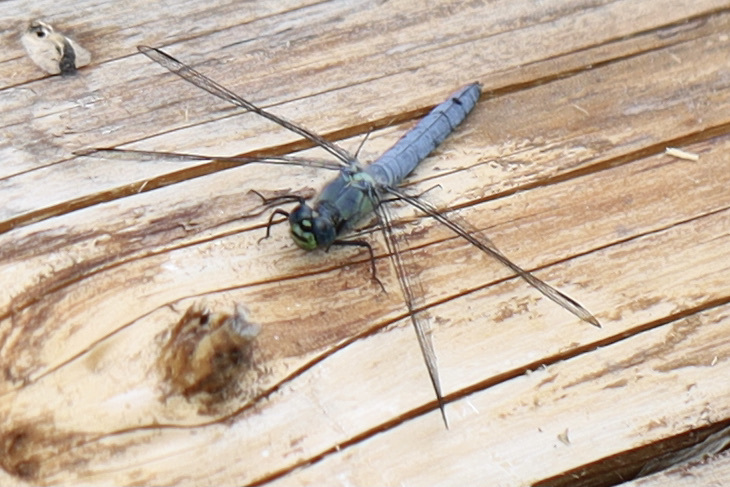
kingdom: Animalia
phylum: Arthropoda
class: Insecta
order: Odonata
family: Libellulidae
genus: Erythemis
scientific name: Erythemis collocata
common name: Western pondhawk
